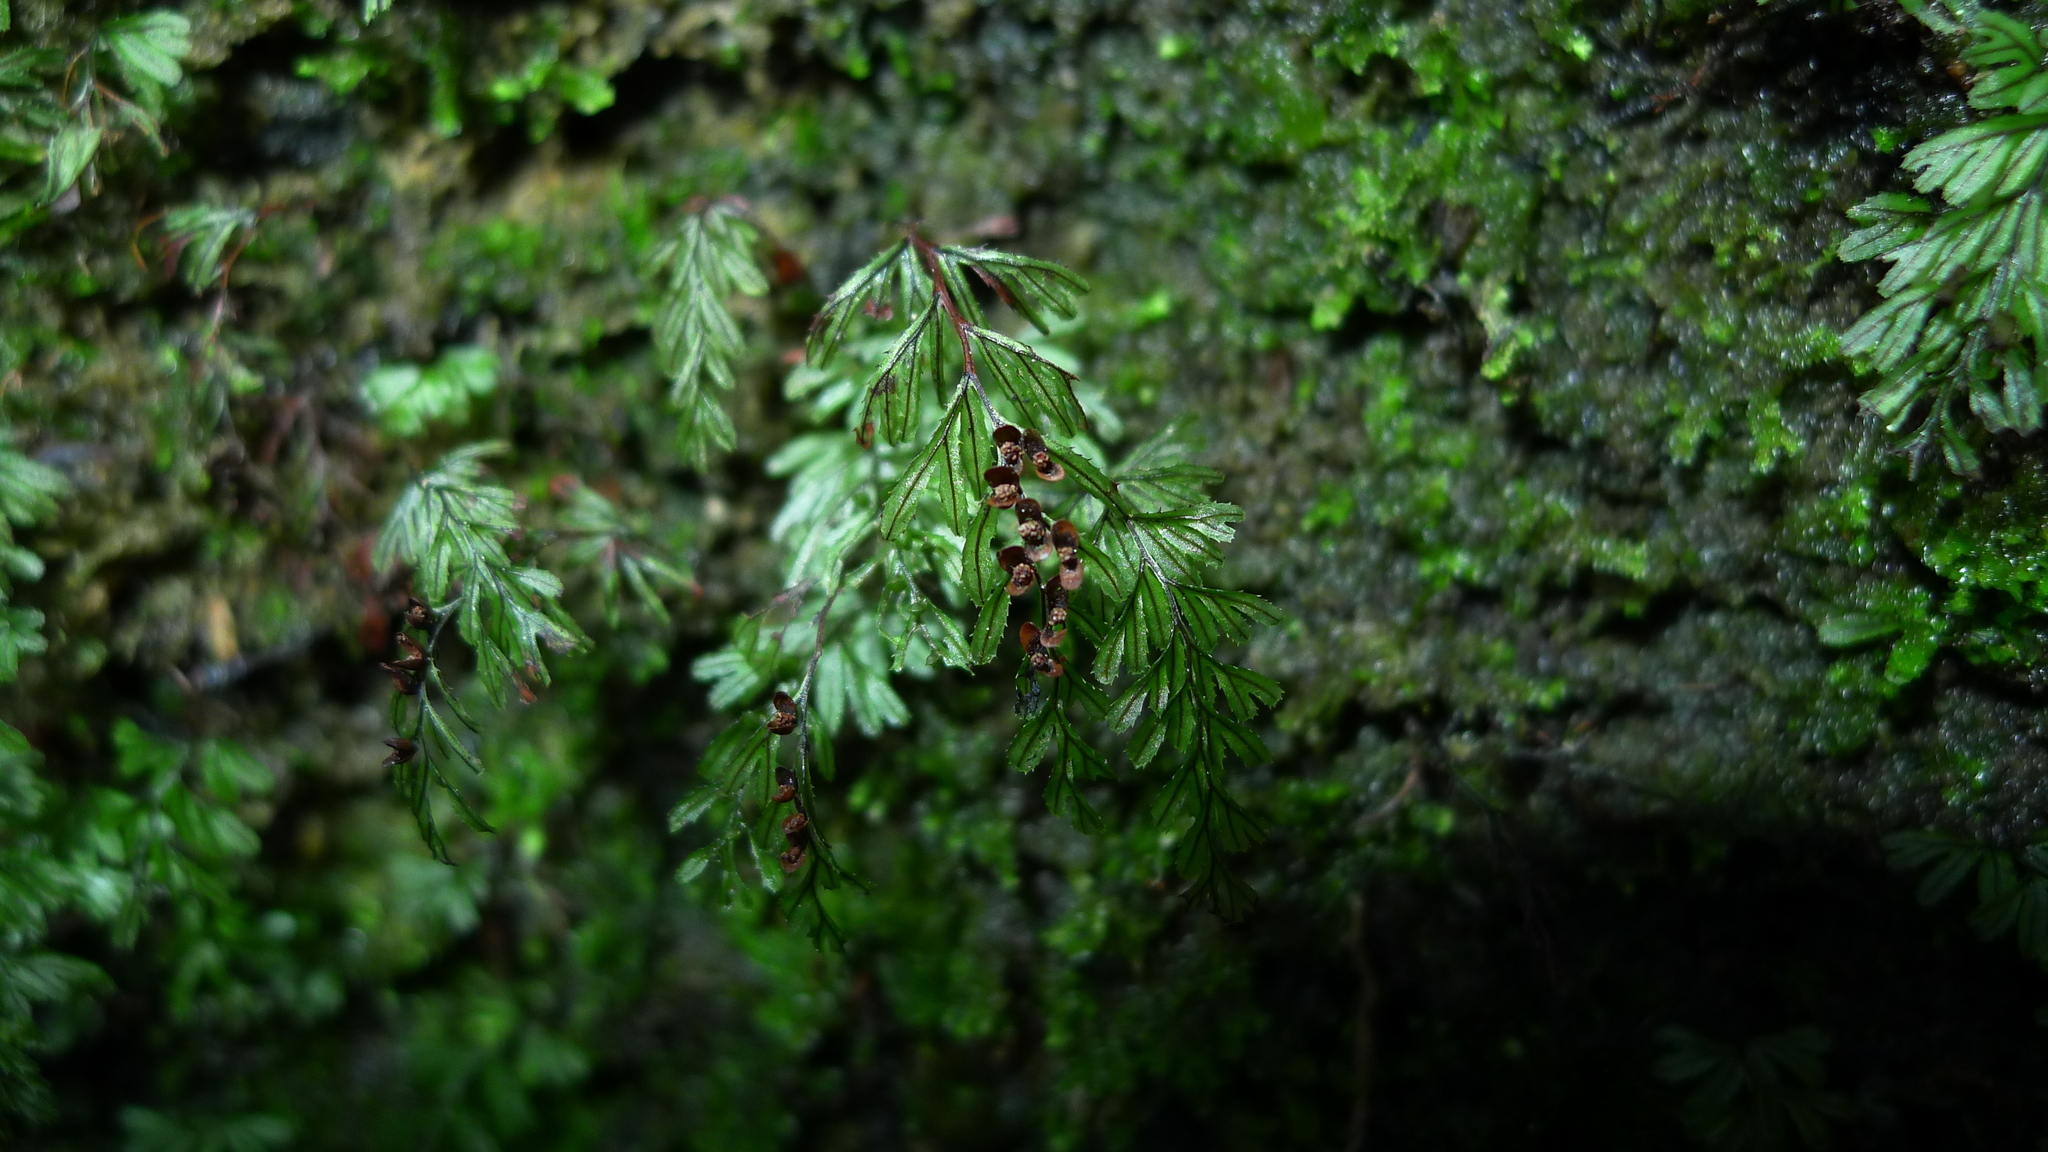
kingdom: Plantae
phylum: Tracheophyta
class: Polypodiopsida
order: Hymenophyllales
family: Hymenophyllaceae
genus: Hymenophyllum
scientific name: Hymenophyllum peltatum
